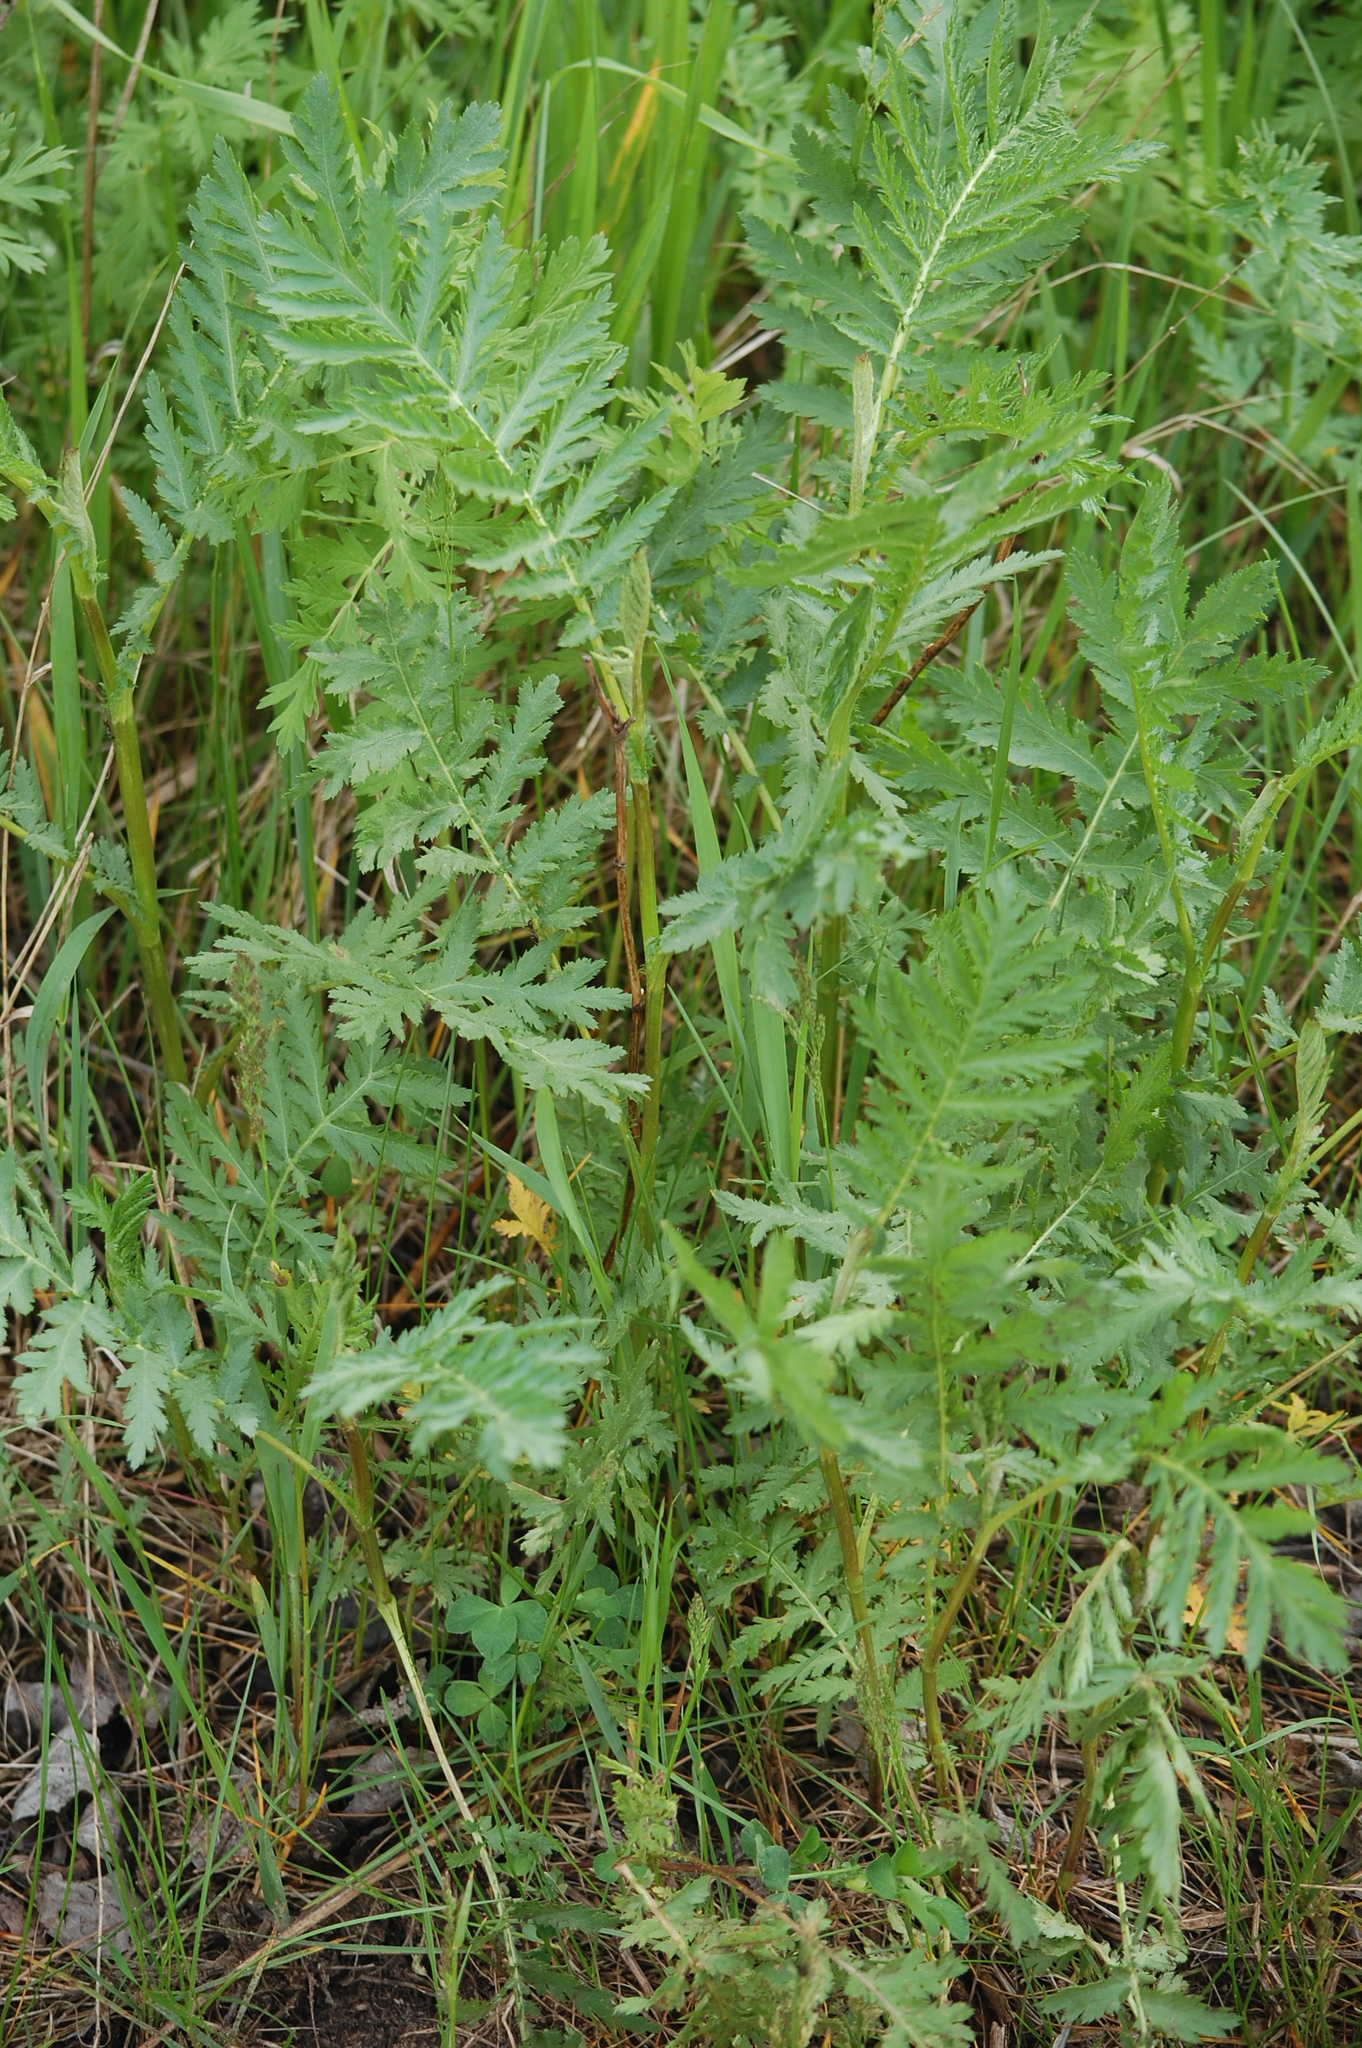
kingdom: Plantae
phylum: Tracheophyta
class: Magnoliopsida
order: Asterales
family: Asteraceae
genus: Tanacetum
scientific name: Tanacetum vulgare
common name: Common tansy
